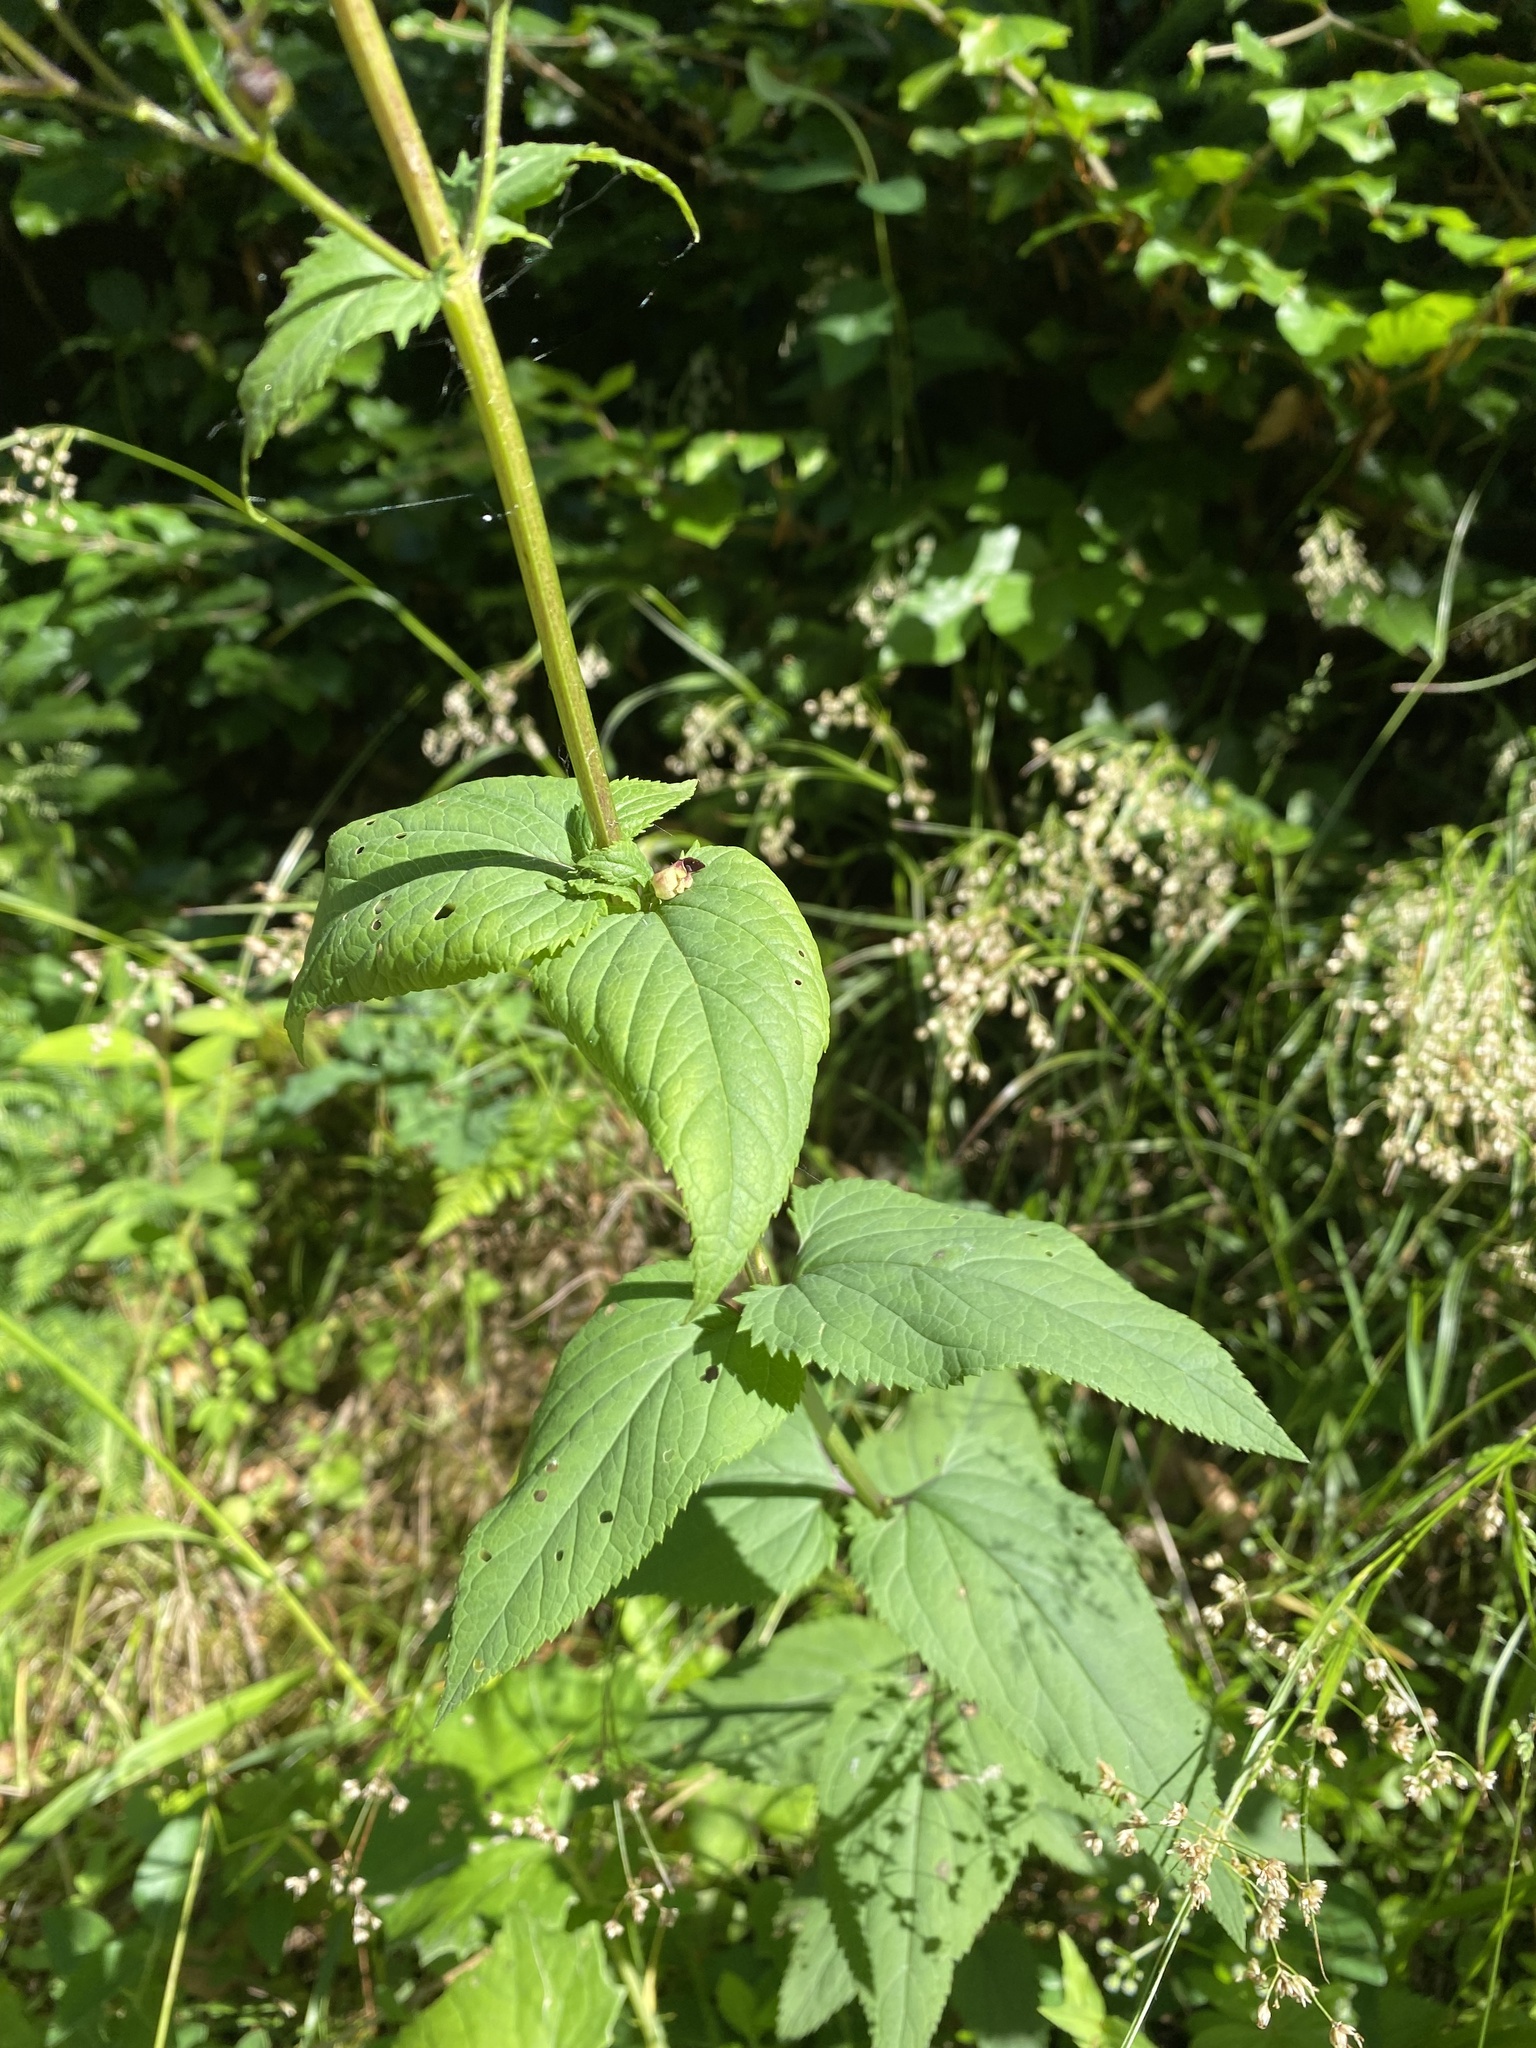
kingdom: Plantae
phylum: Tracheophyta
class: Magnoliopsida
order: Lamiales
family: Scrophulariaceae
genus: Scrophularia
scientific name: Scrophularia nodosa
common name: Common figwort
